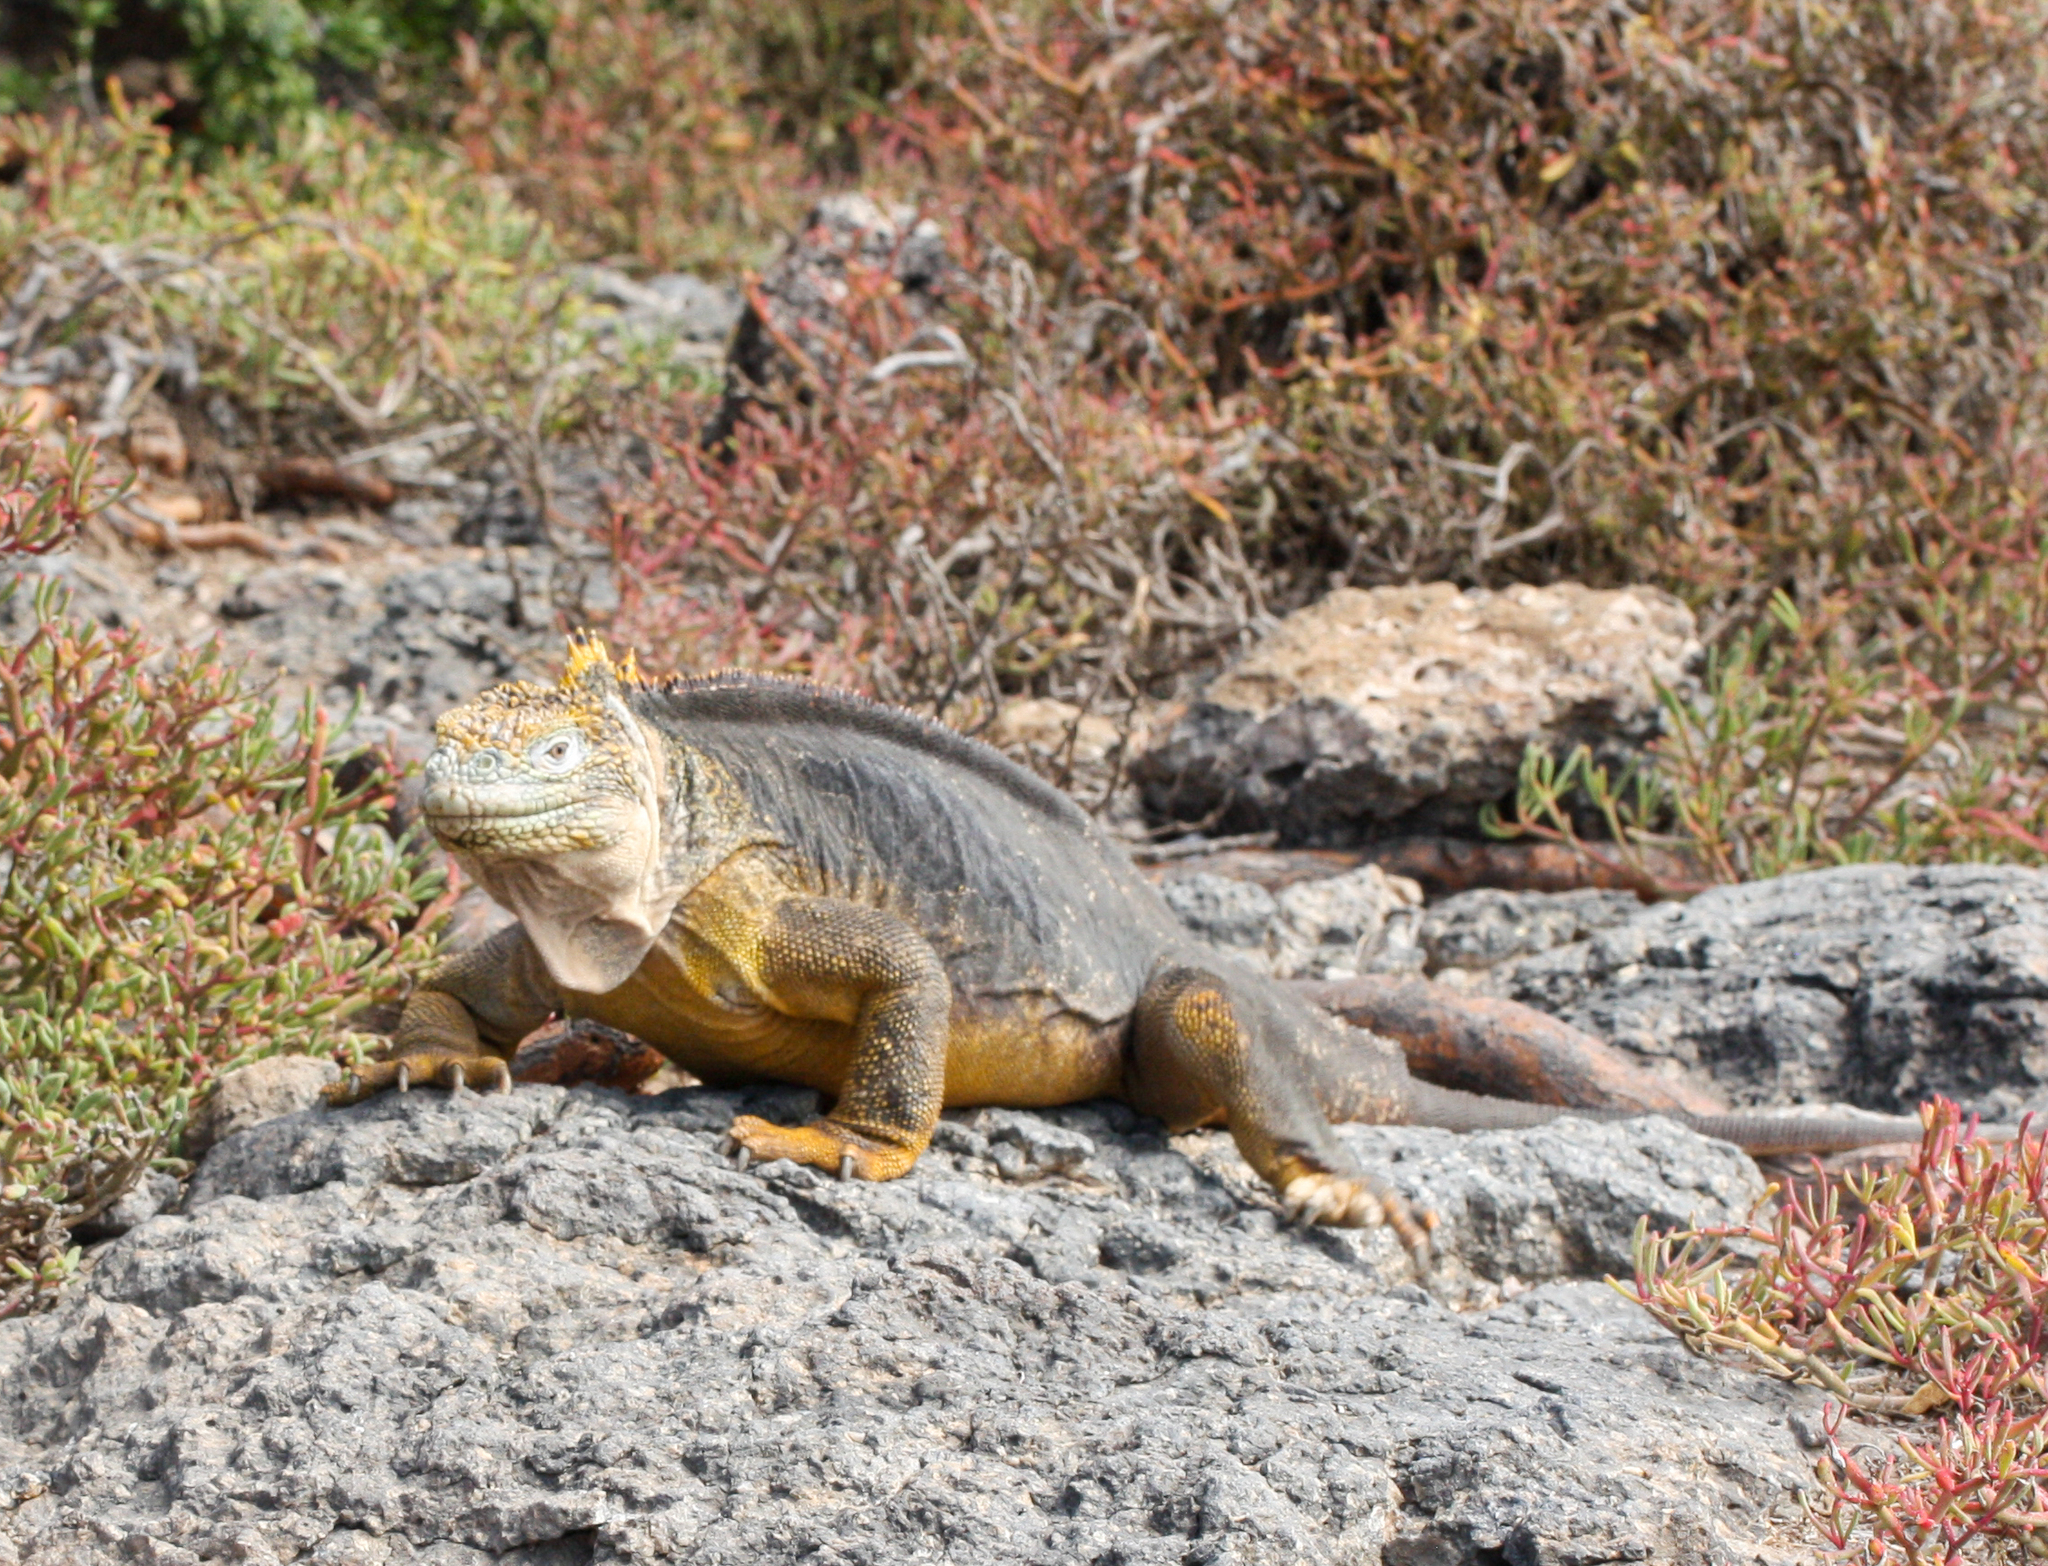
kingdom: Animalia
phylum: Chordata
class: Squamata
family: Iguanidae
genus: Conolophus
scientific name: Conolophus subcristatus
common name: Galapagos land iguana
